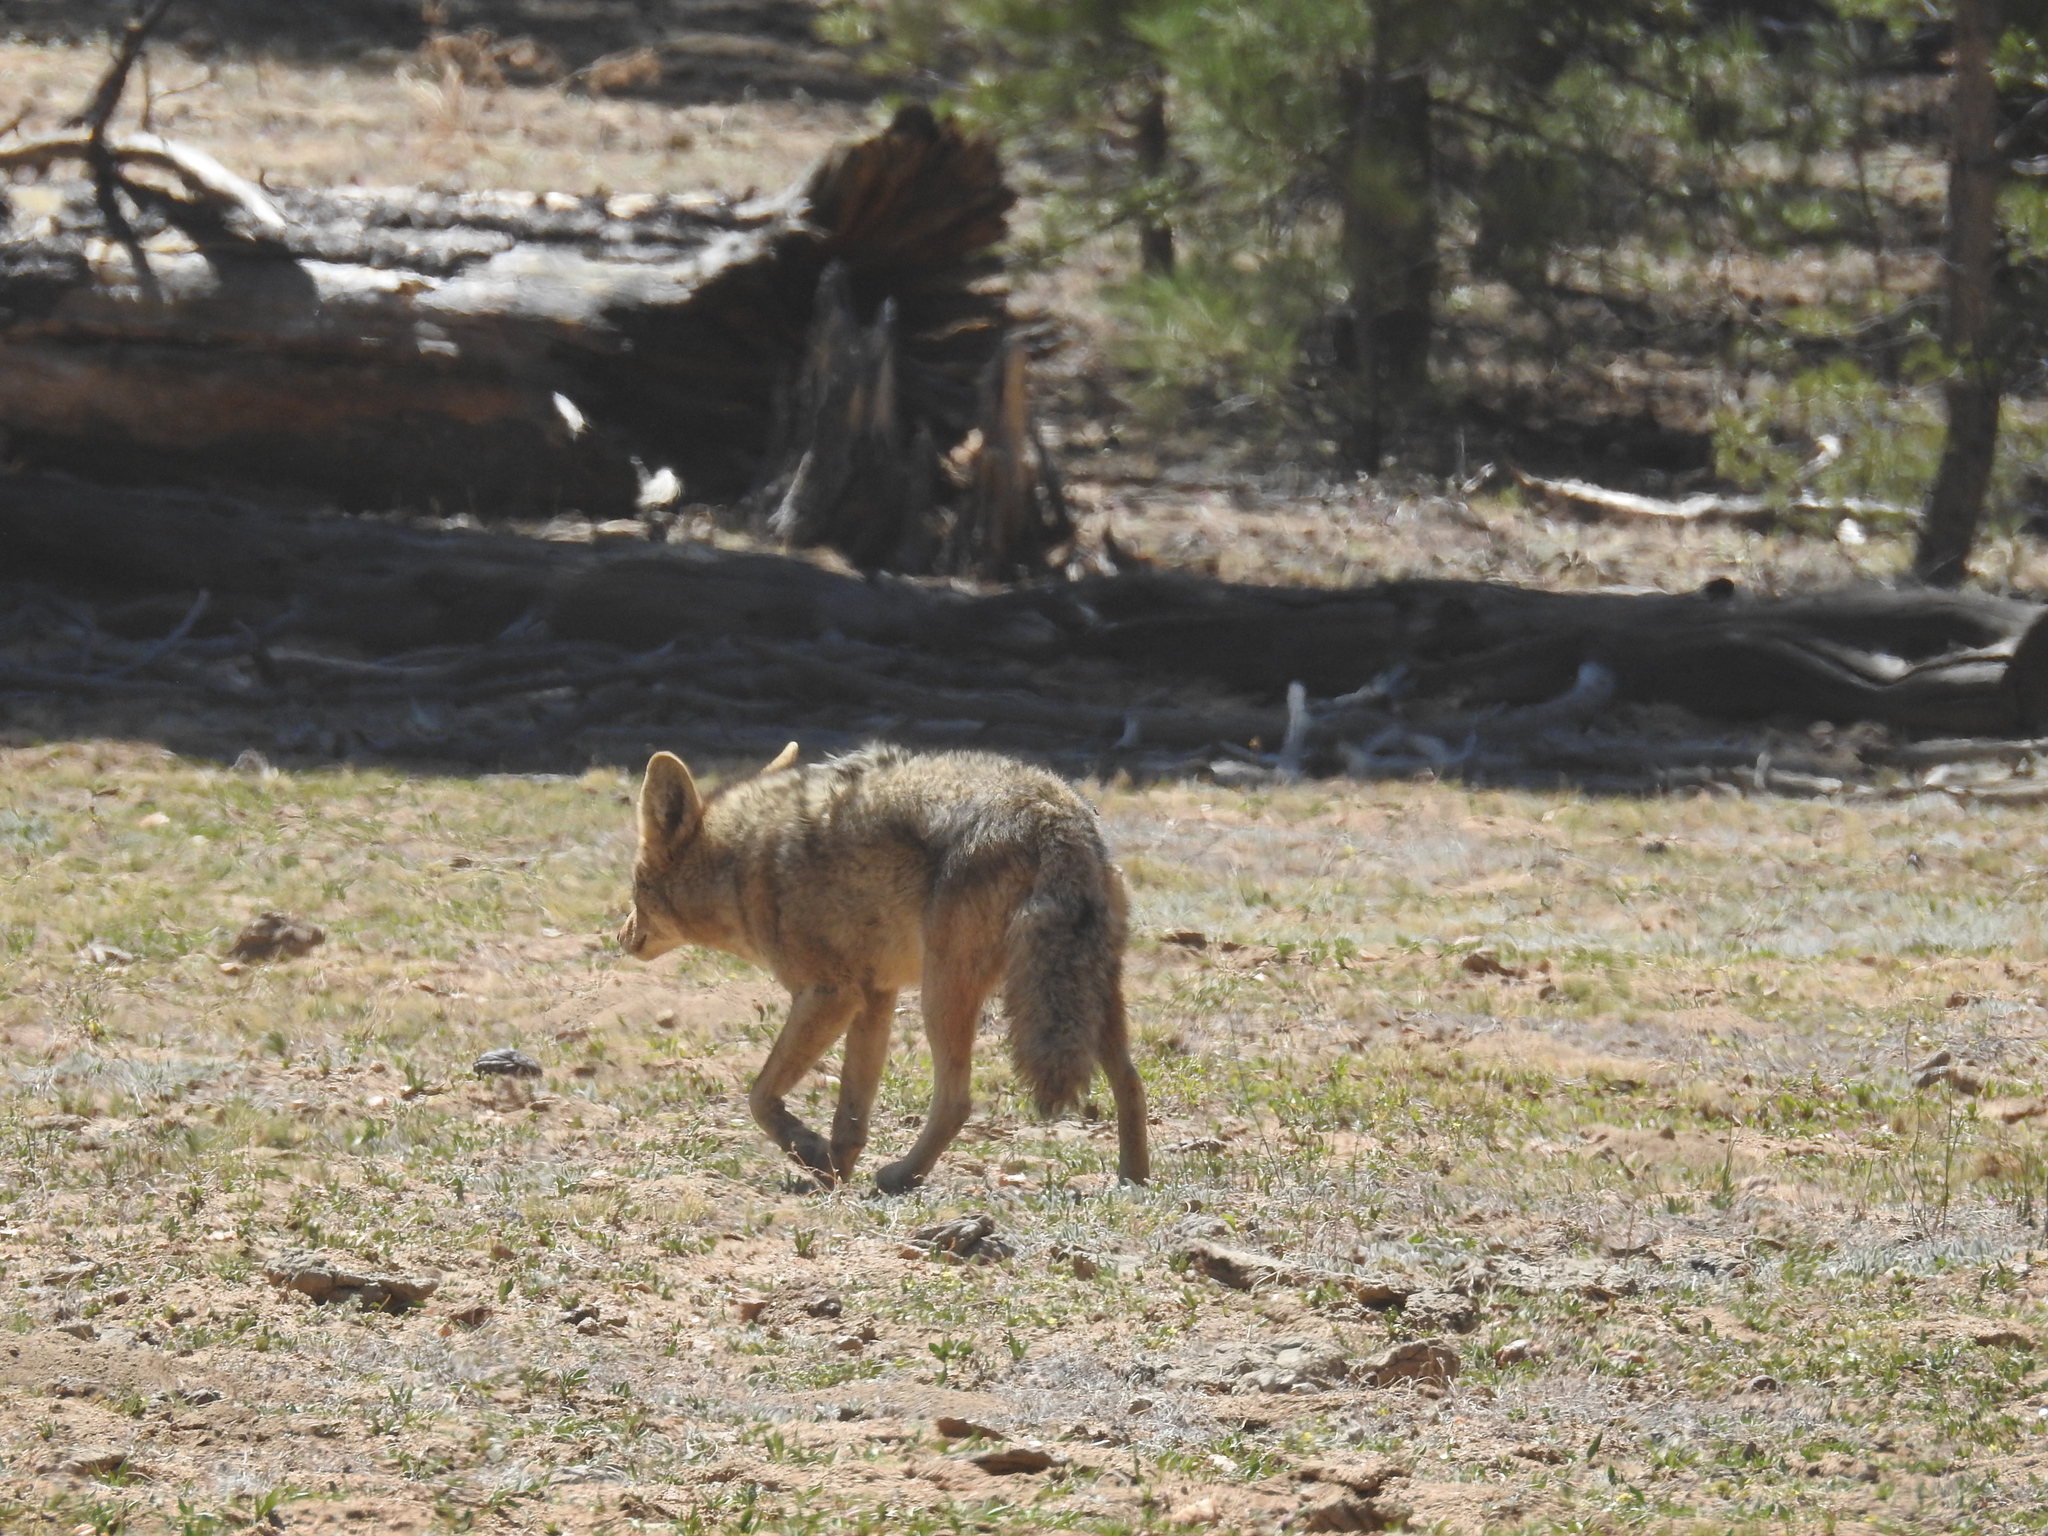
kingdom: Animalia
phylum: Chordata
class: Mammalia
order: Carnivora
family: Canidae
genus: Canis
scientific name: Canis latrans
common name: Coyote
